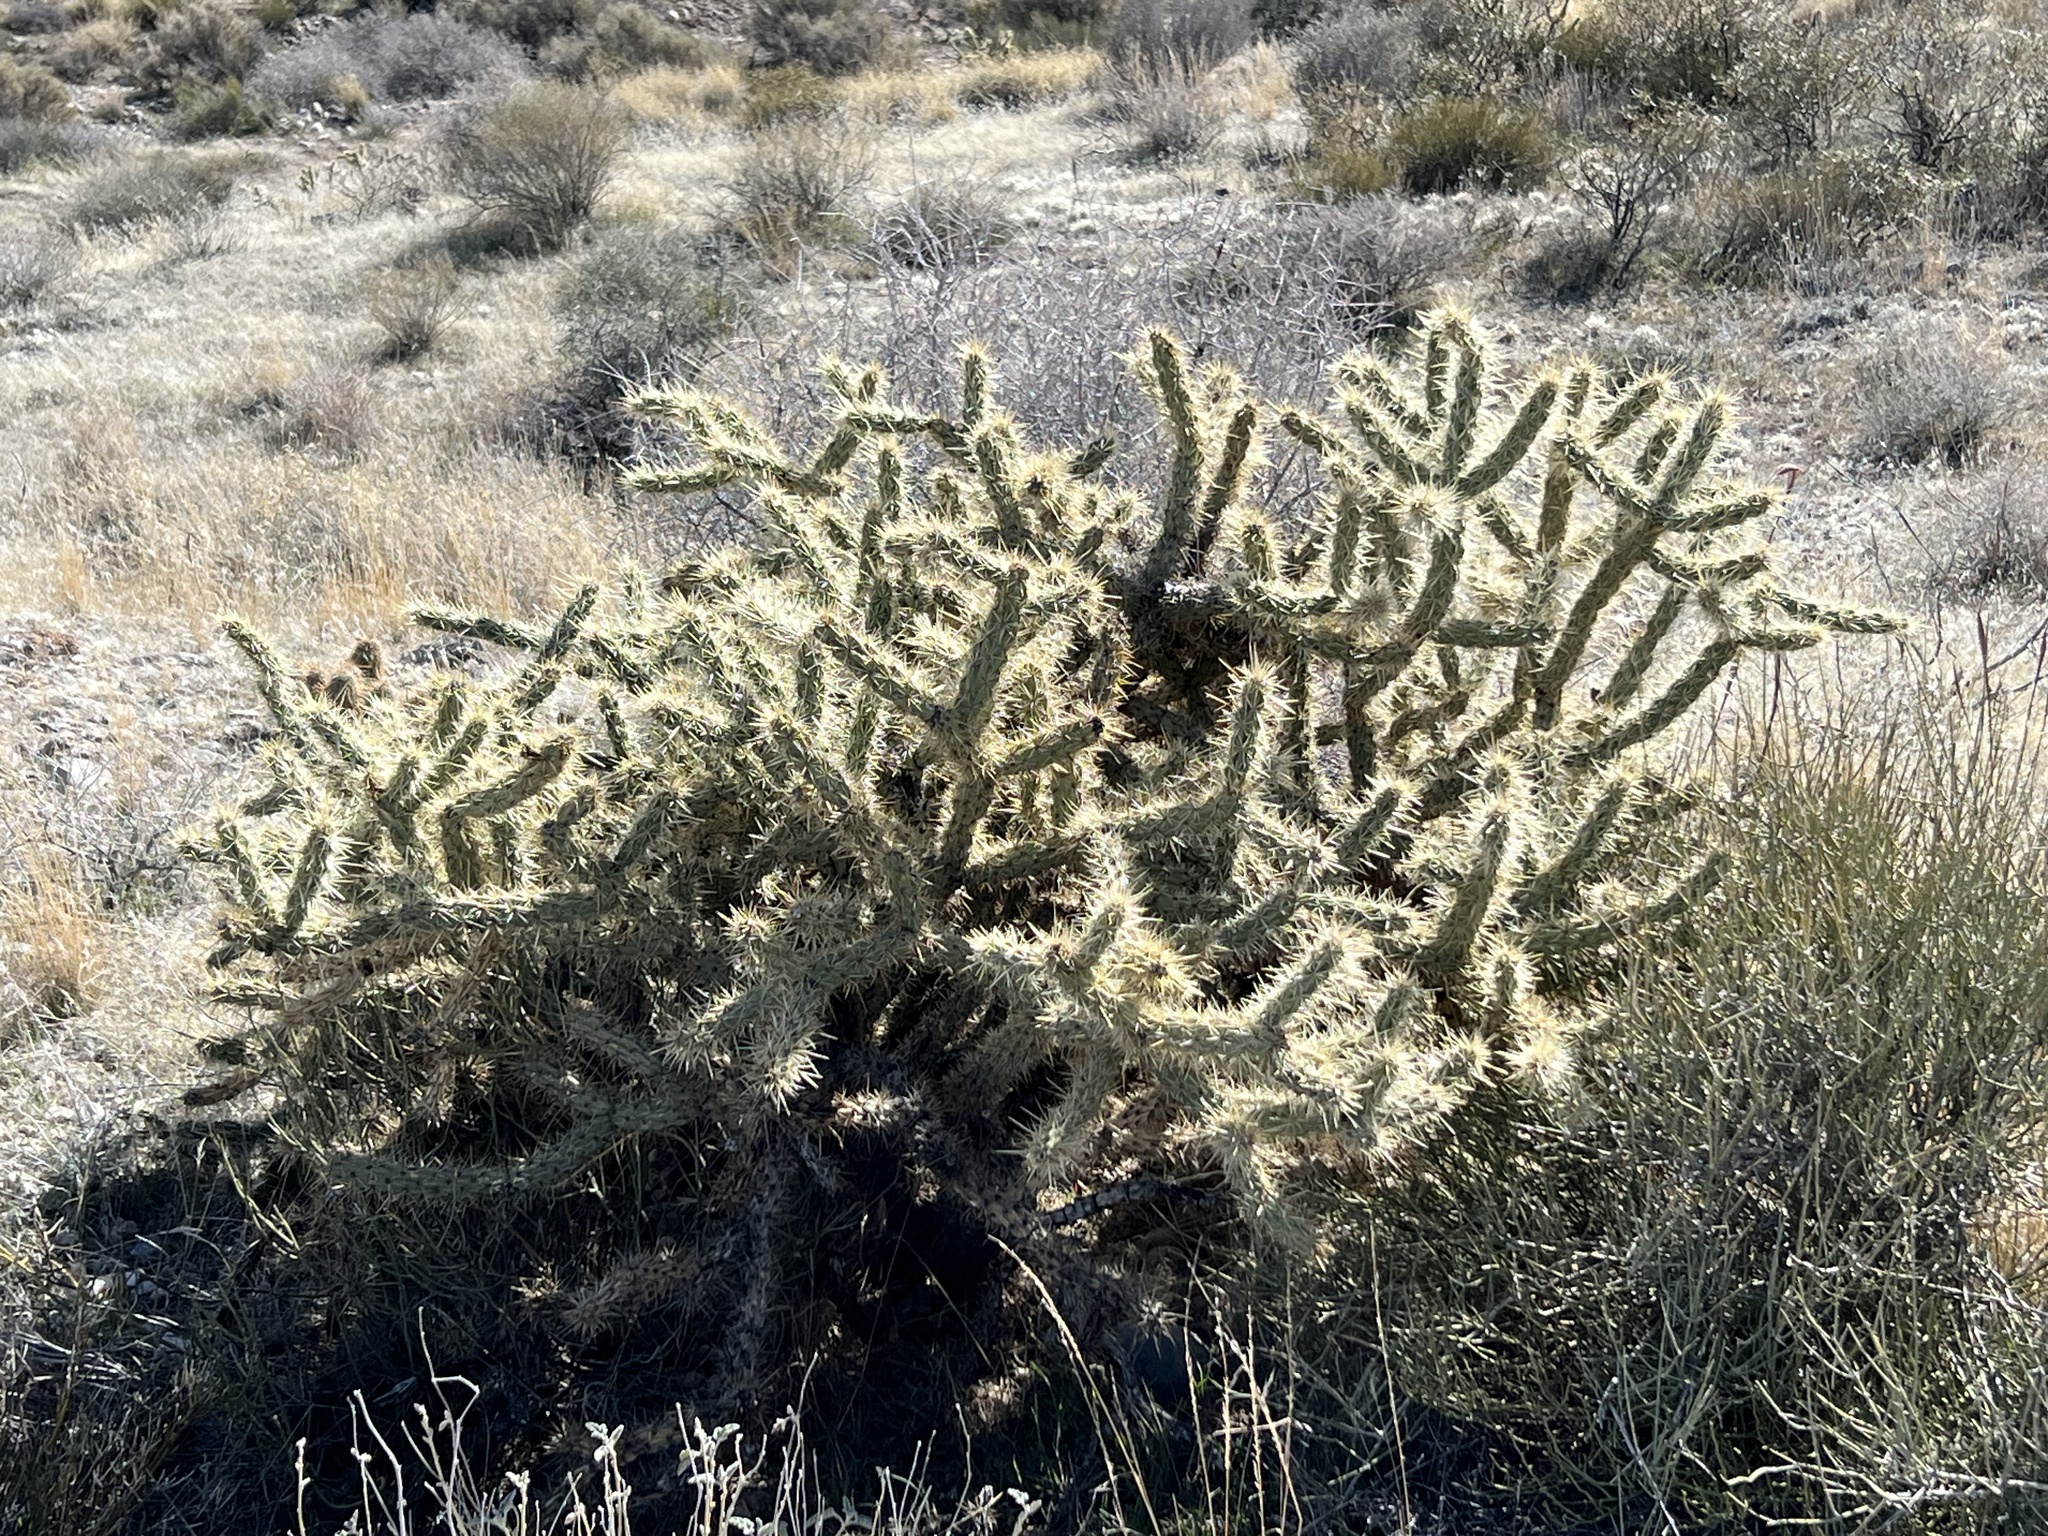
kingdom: Plantae
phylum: Tracheophyta
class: Magnoliopsida
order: Caryophyllales
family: Cactaceae
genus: Cylindropuntia
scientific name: Cylindropuntia acanthocarpa
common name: Buckhorn cholla
